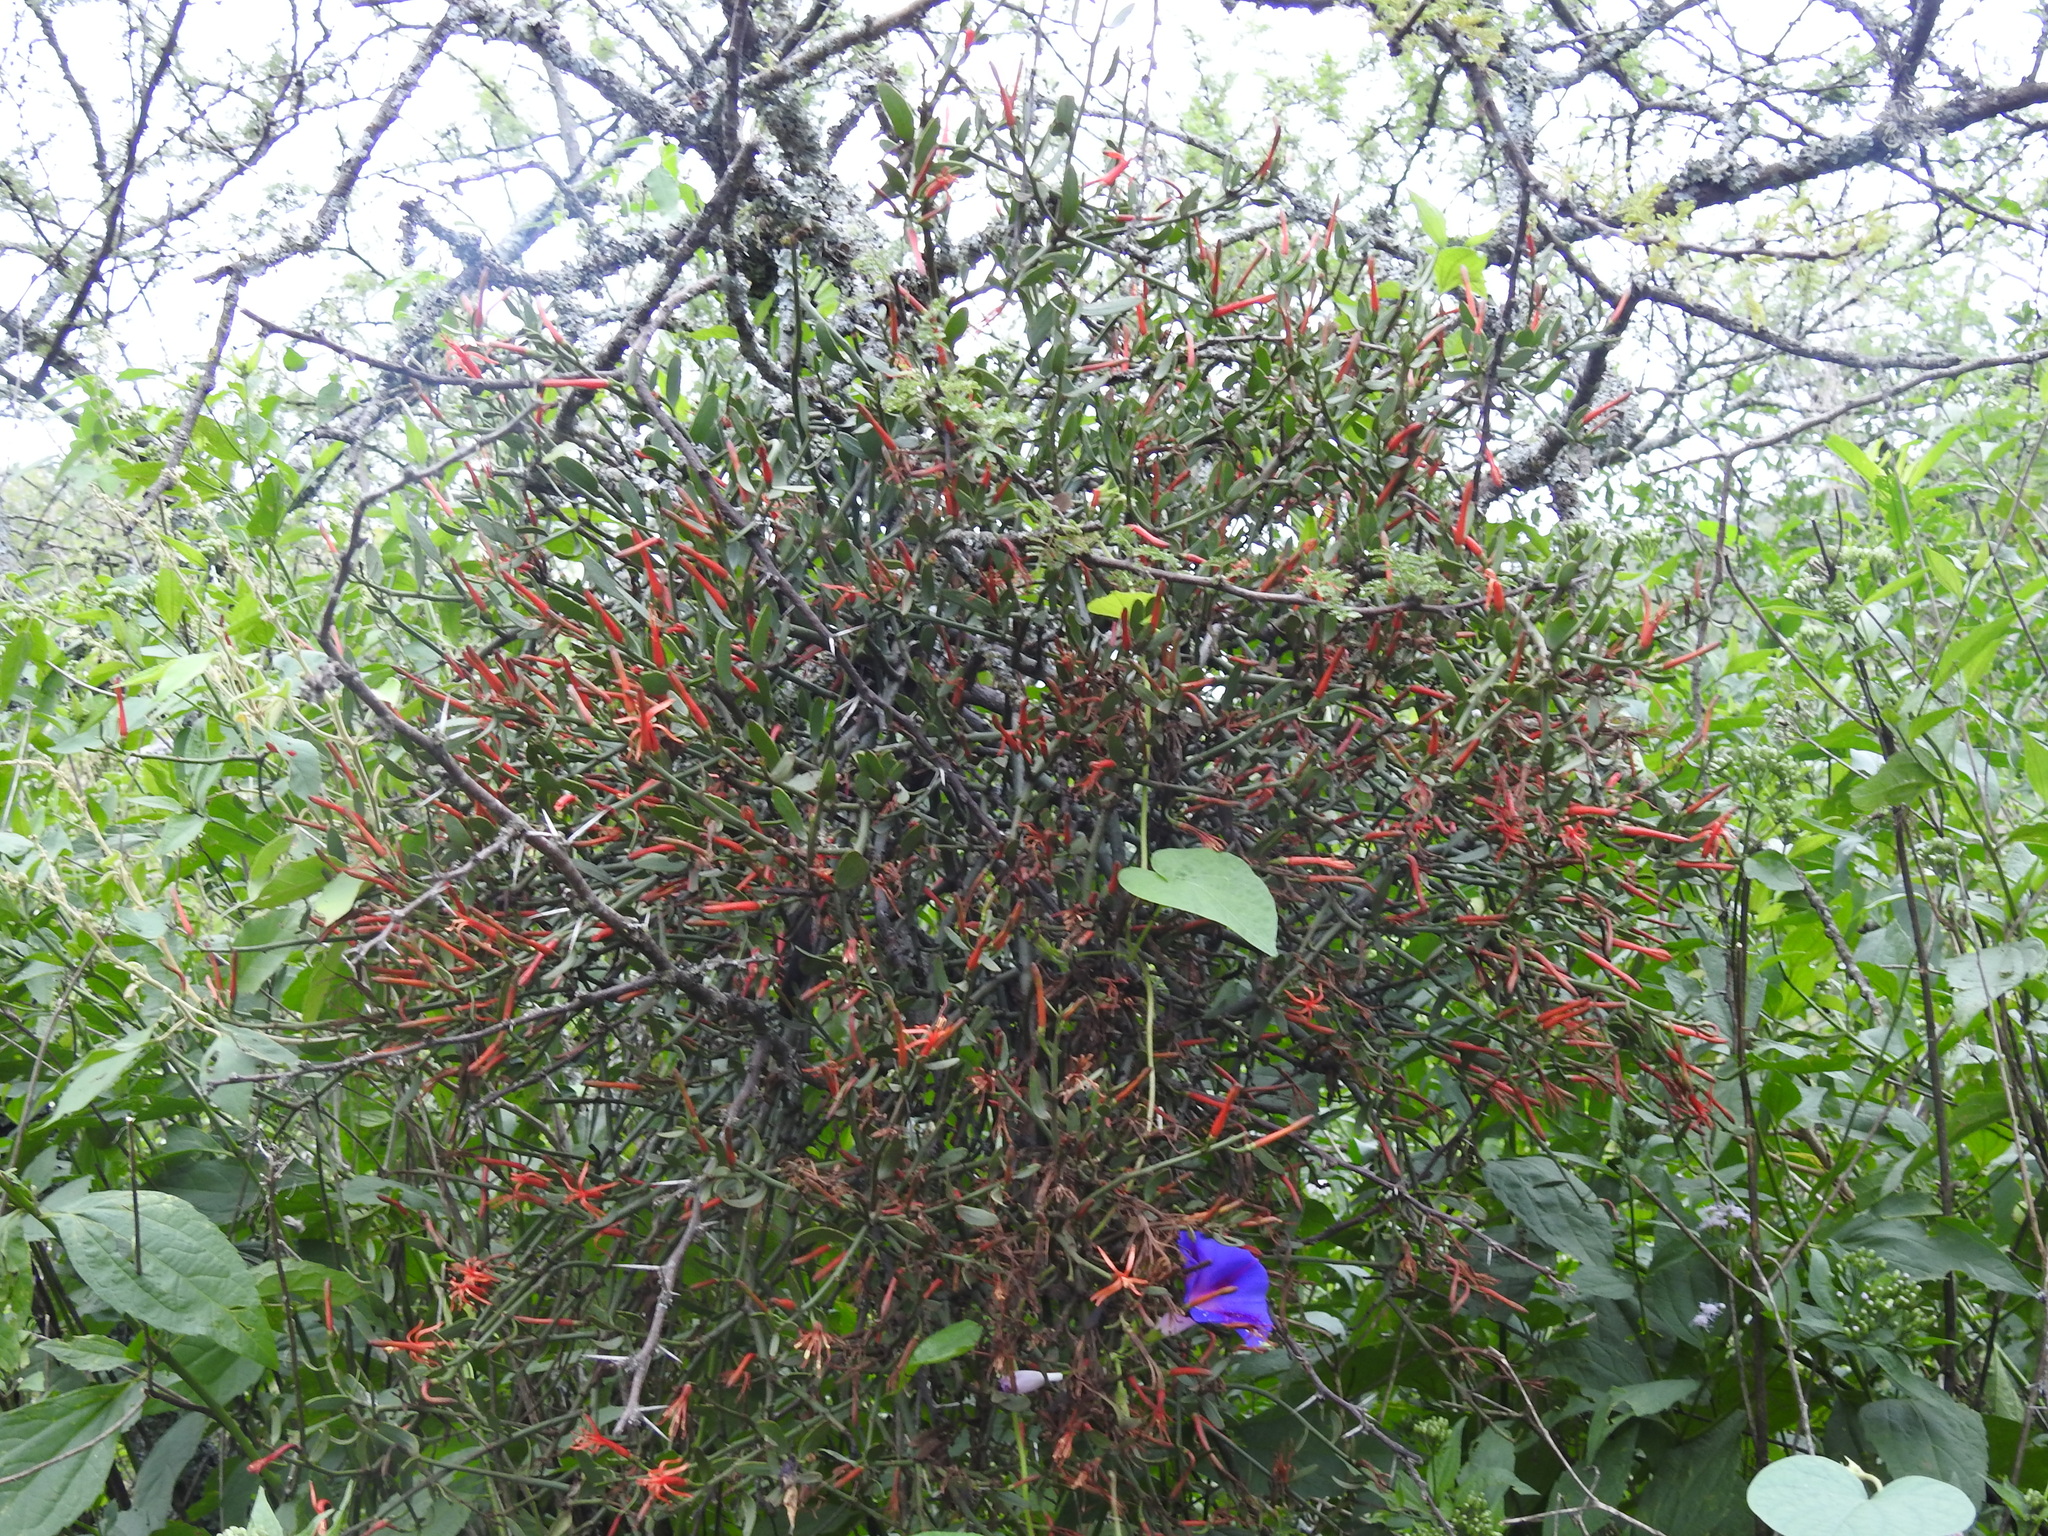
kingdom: Plantae
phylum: Tracheophyta
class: Magnoliopsida
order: Santalales
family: Loranthaceae
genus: Ligaria
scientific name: Ligaria cuneifolia
